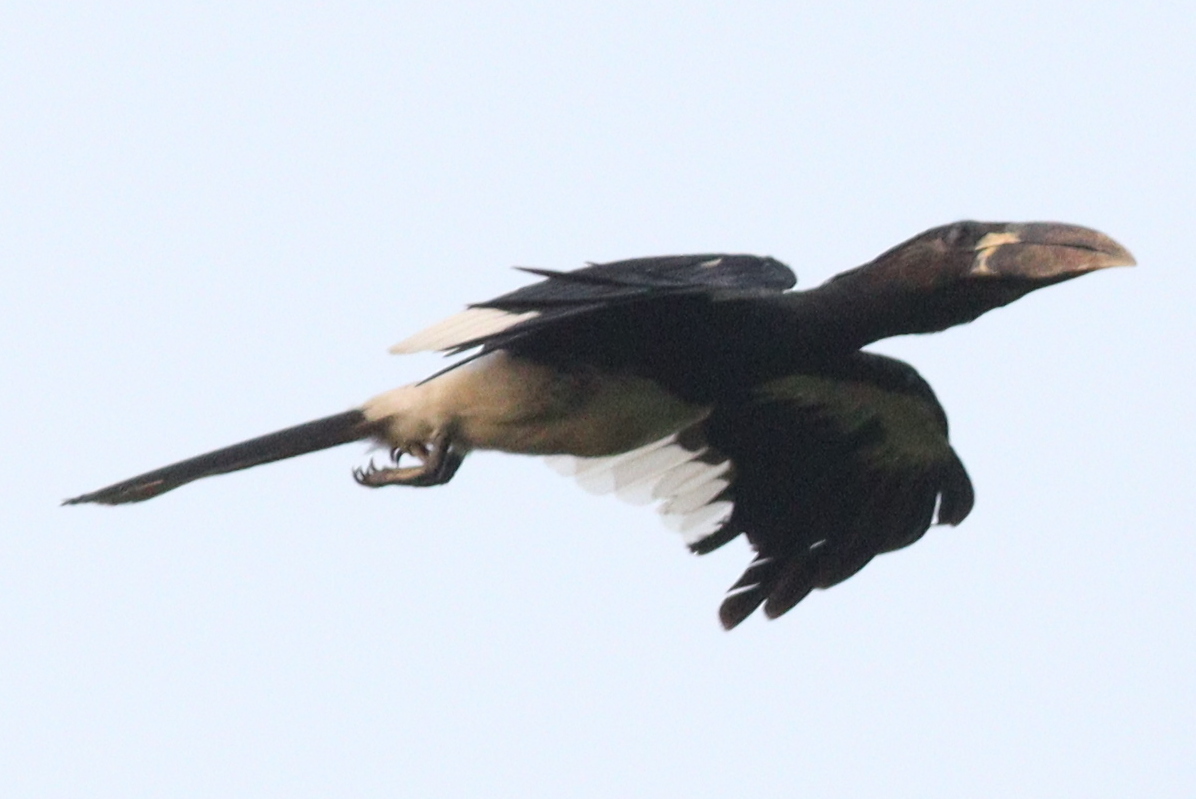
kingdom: Animalia
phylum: Chordata
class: Aves
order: Bucerotiformes
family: Bucerotidae
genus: Bycanistes
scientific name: Bycanistes fistulator
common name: Piping hornbill
